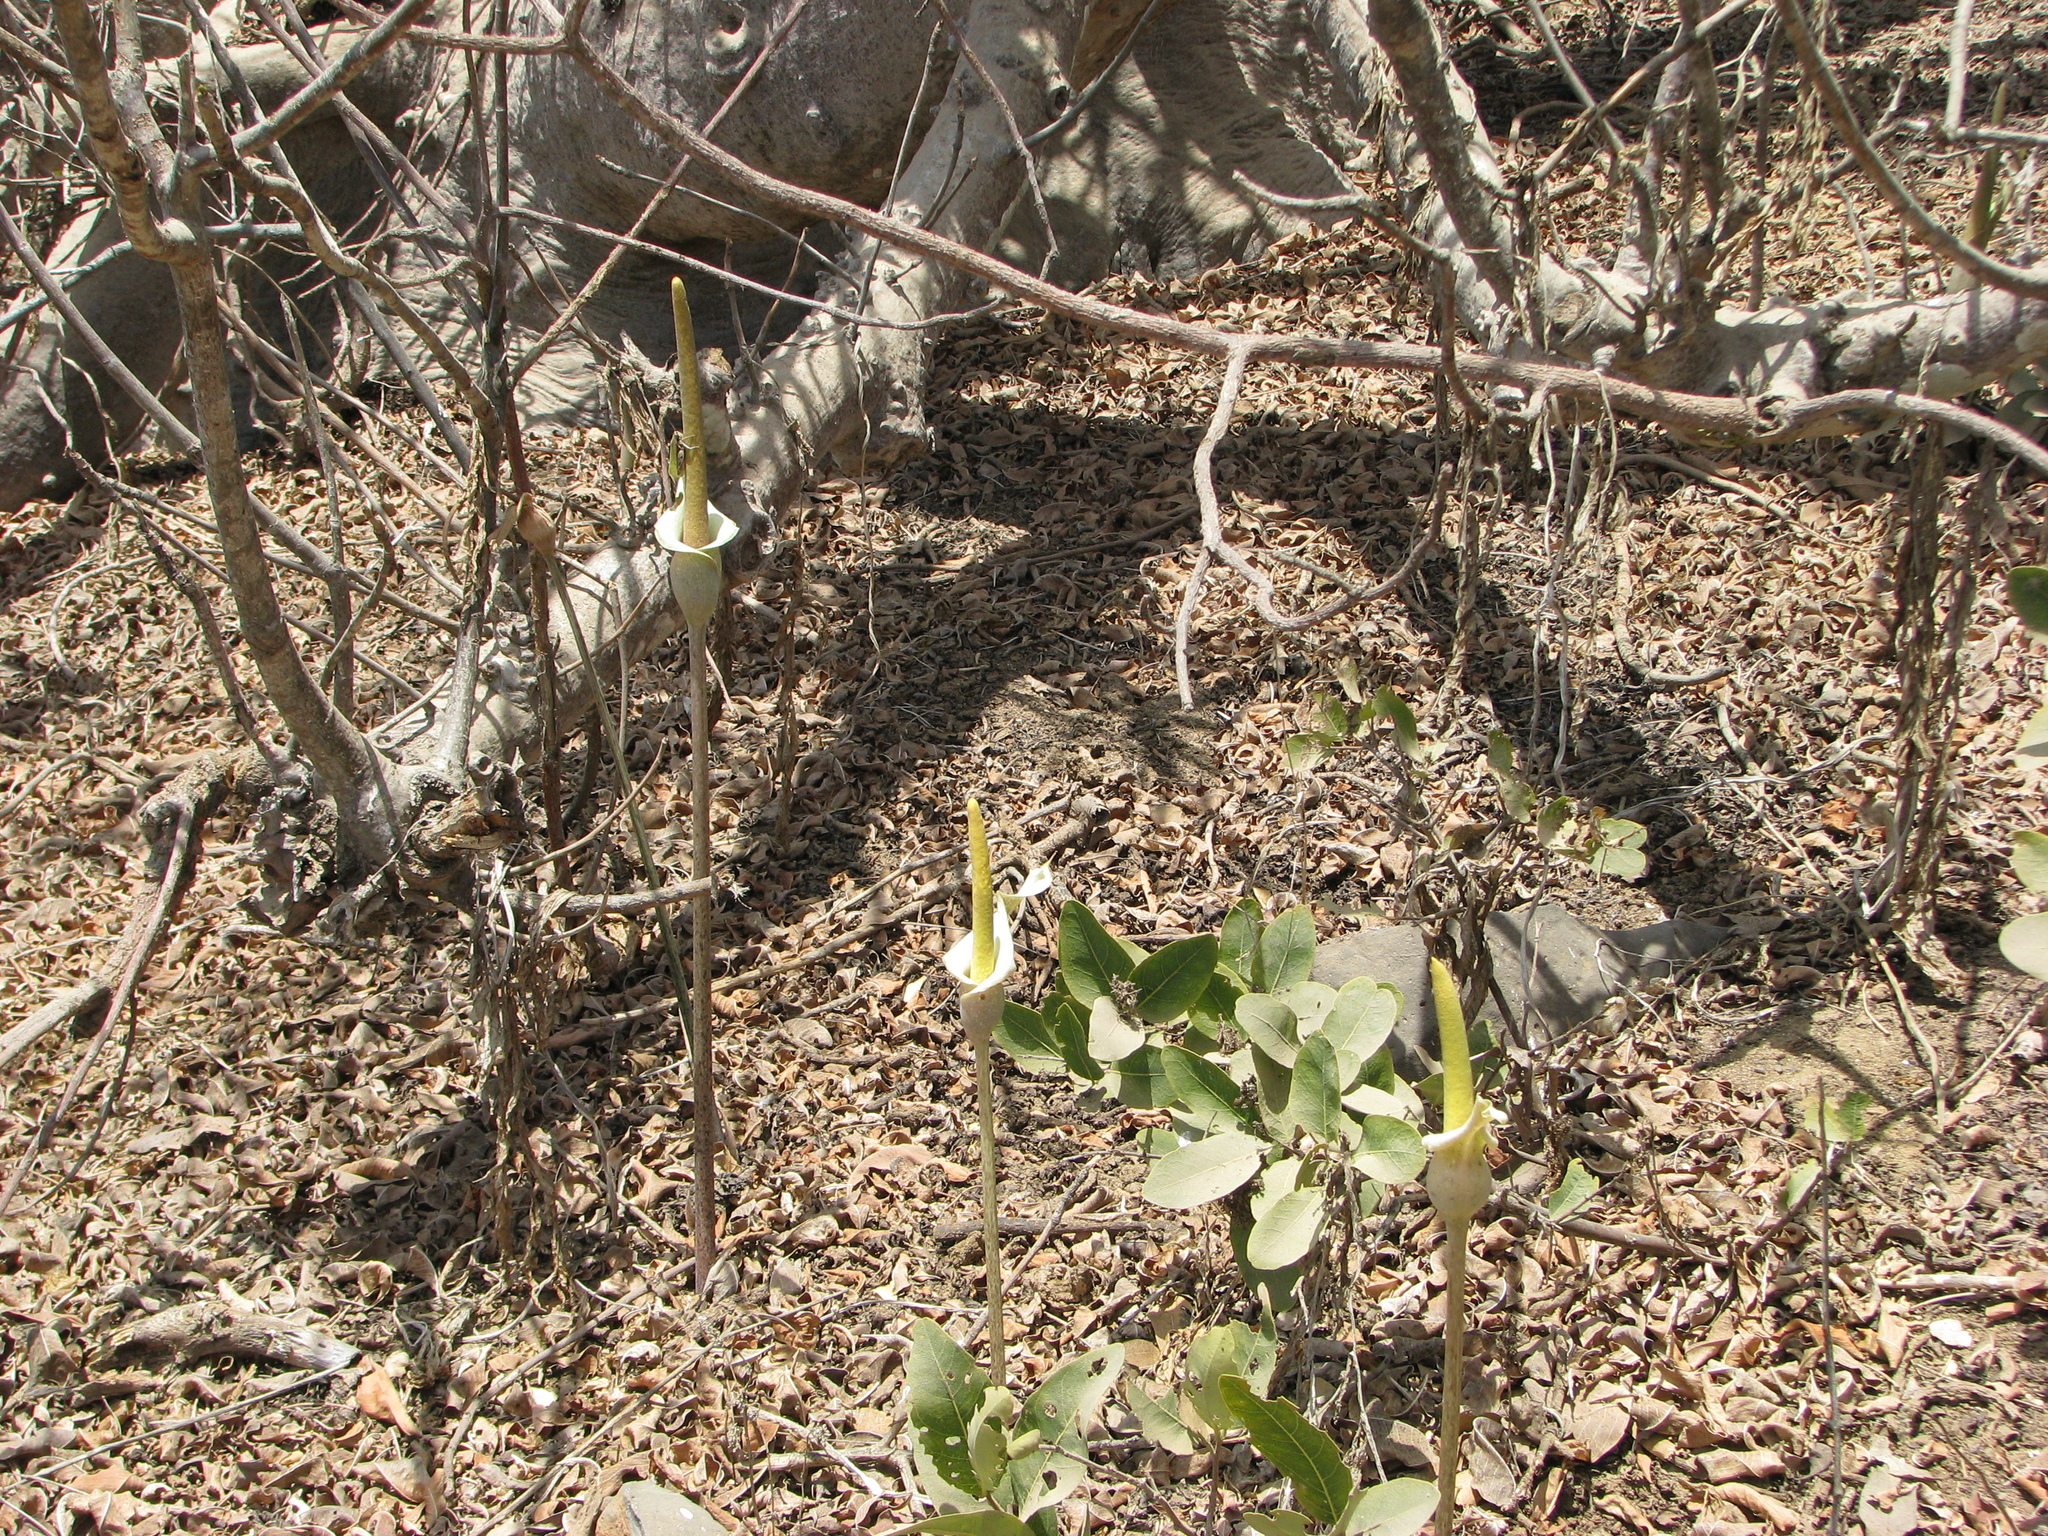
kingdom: Plantae
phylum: Tracheophyta
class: Liliopsida
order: Alismatales
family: Araceae
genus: Amorphophallus
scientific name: Amorphophallus consimilis
